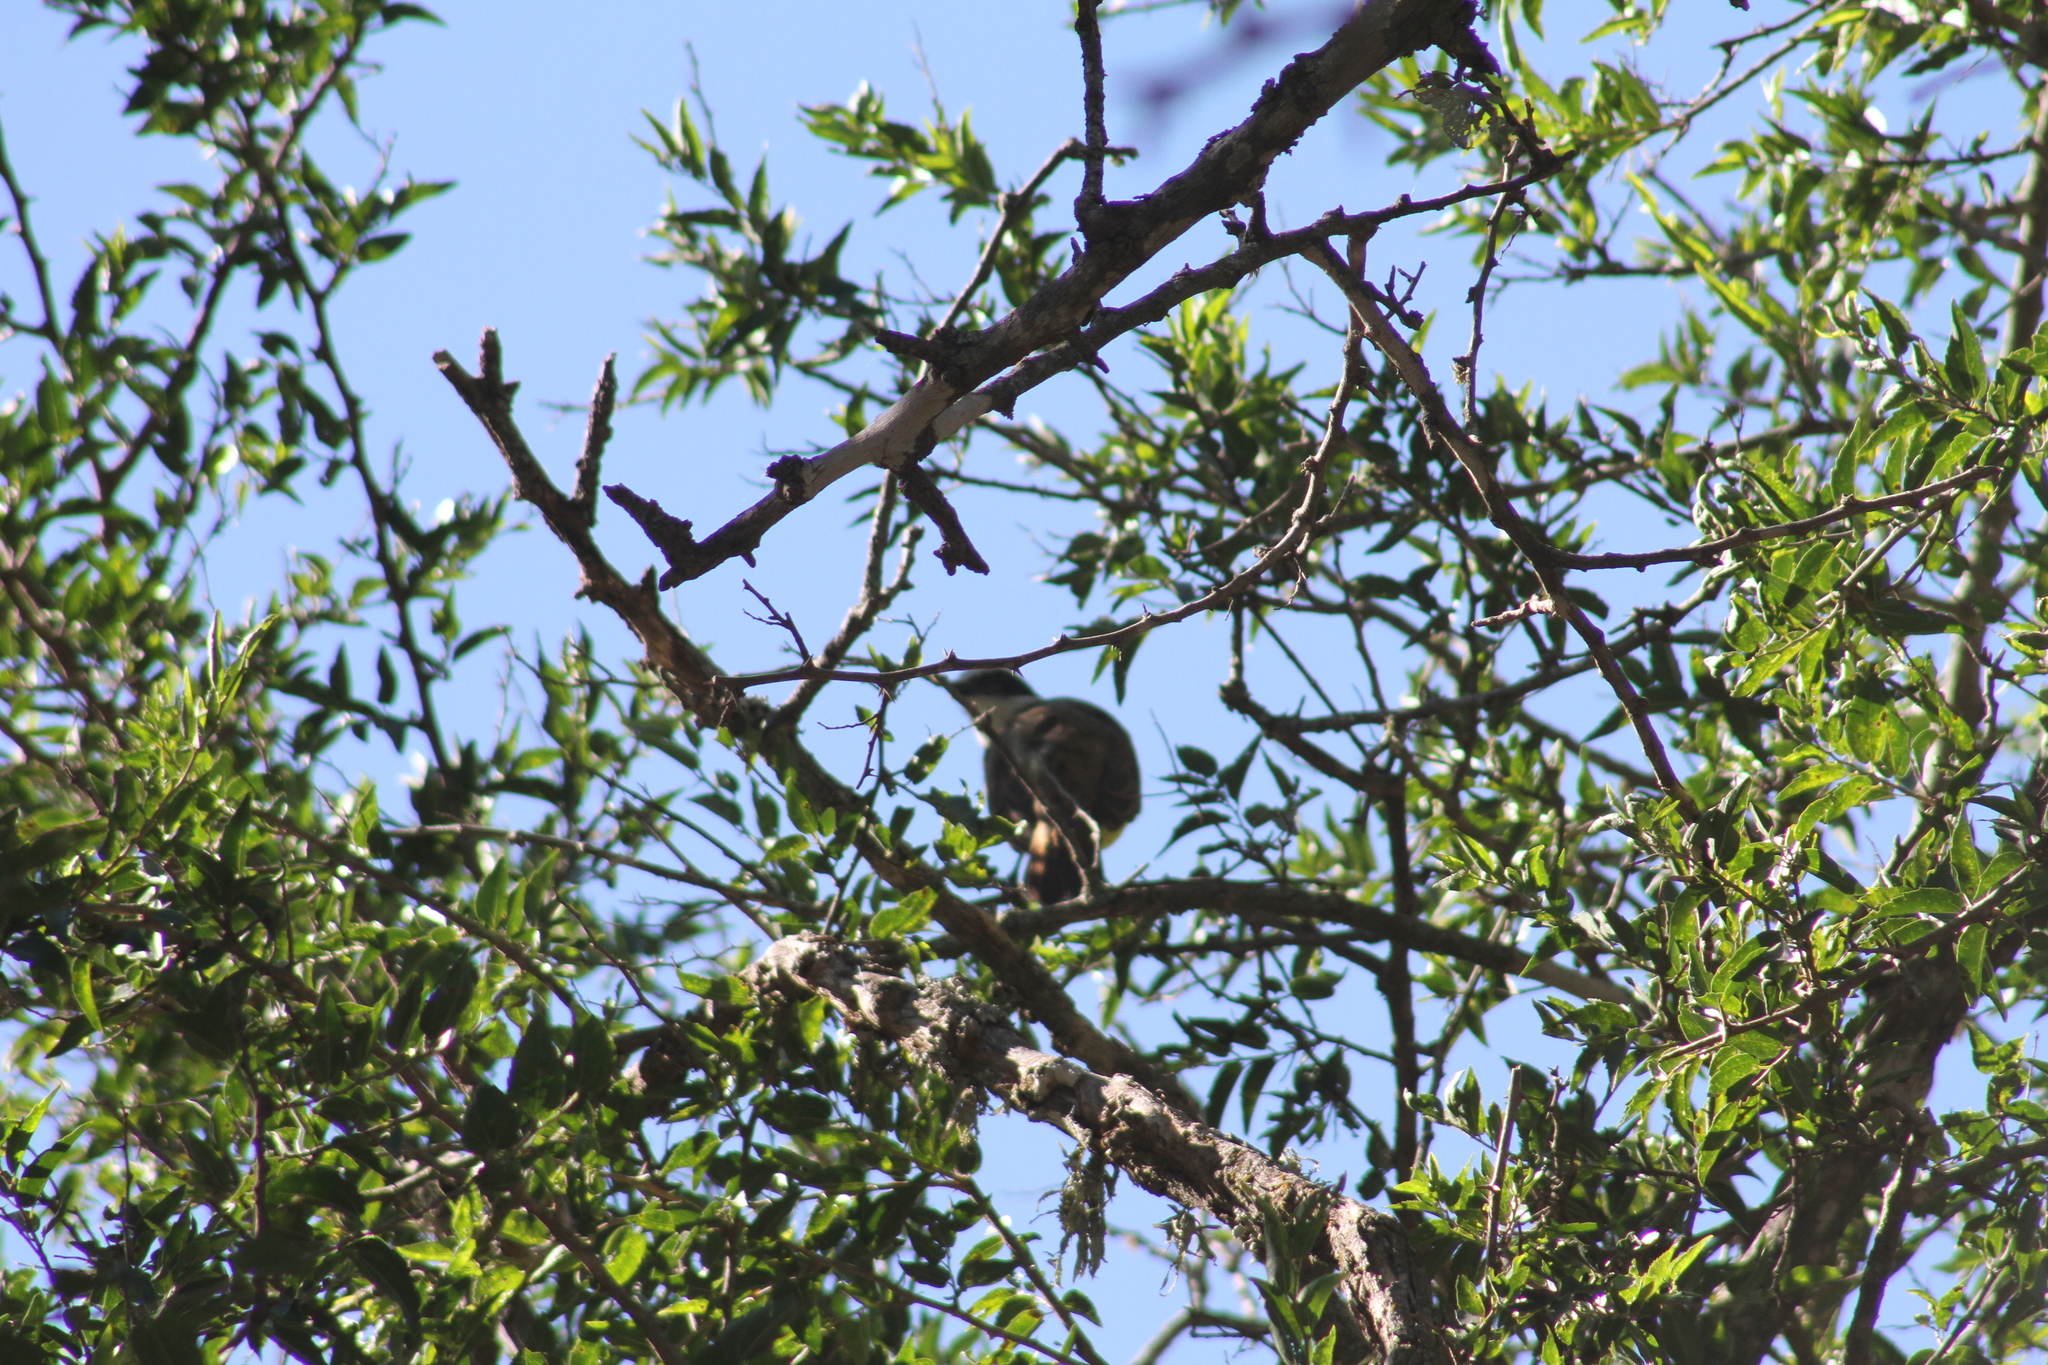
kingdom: Animalia
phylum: Chordata
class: Aves
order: Passeriformes
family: Tyrannidae
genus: Pitangus
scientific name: Pitangus sulphuratus
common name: Great kiskadee
